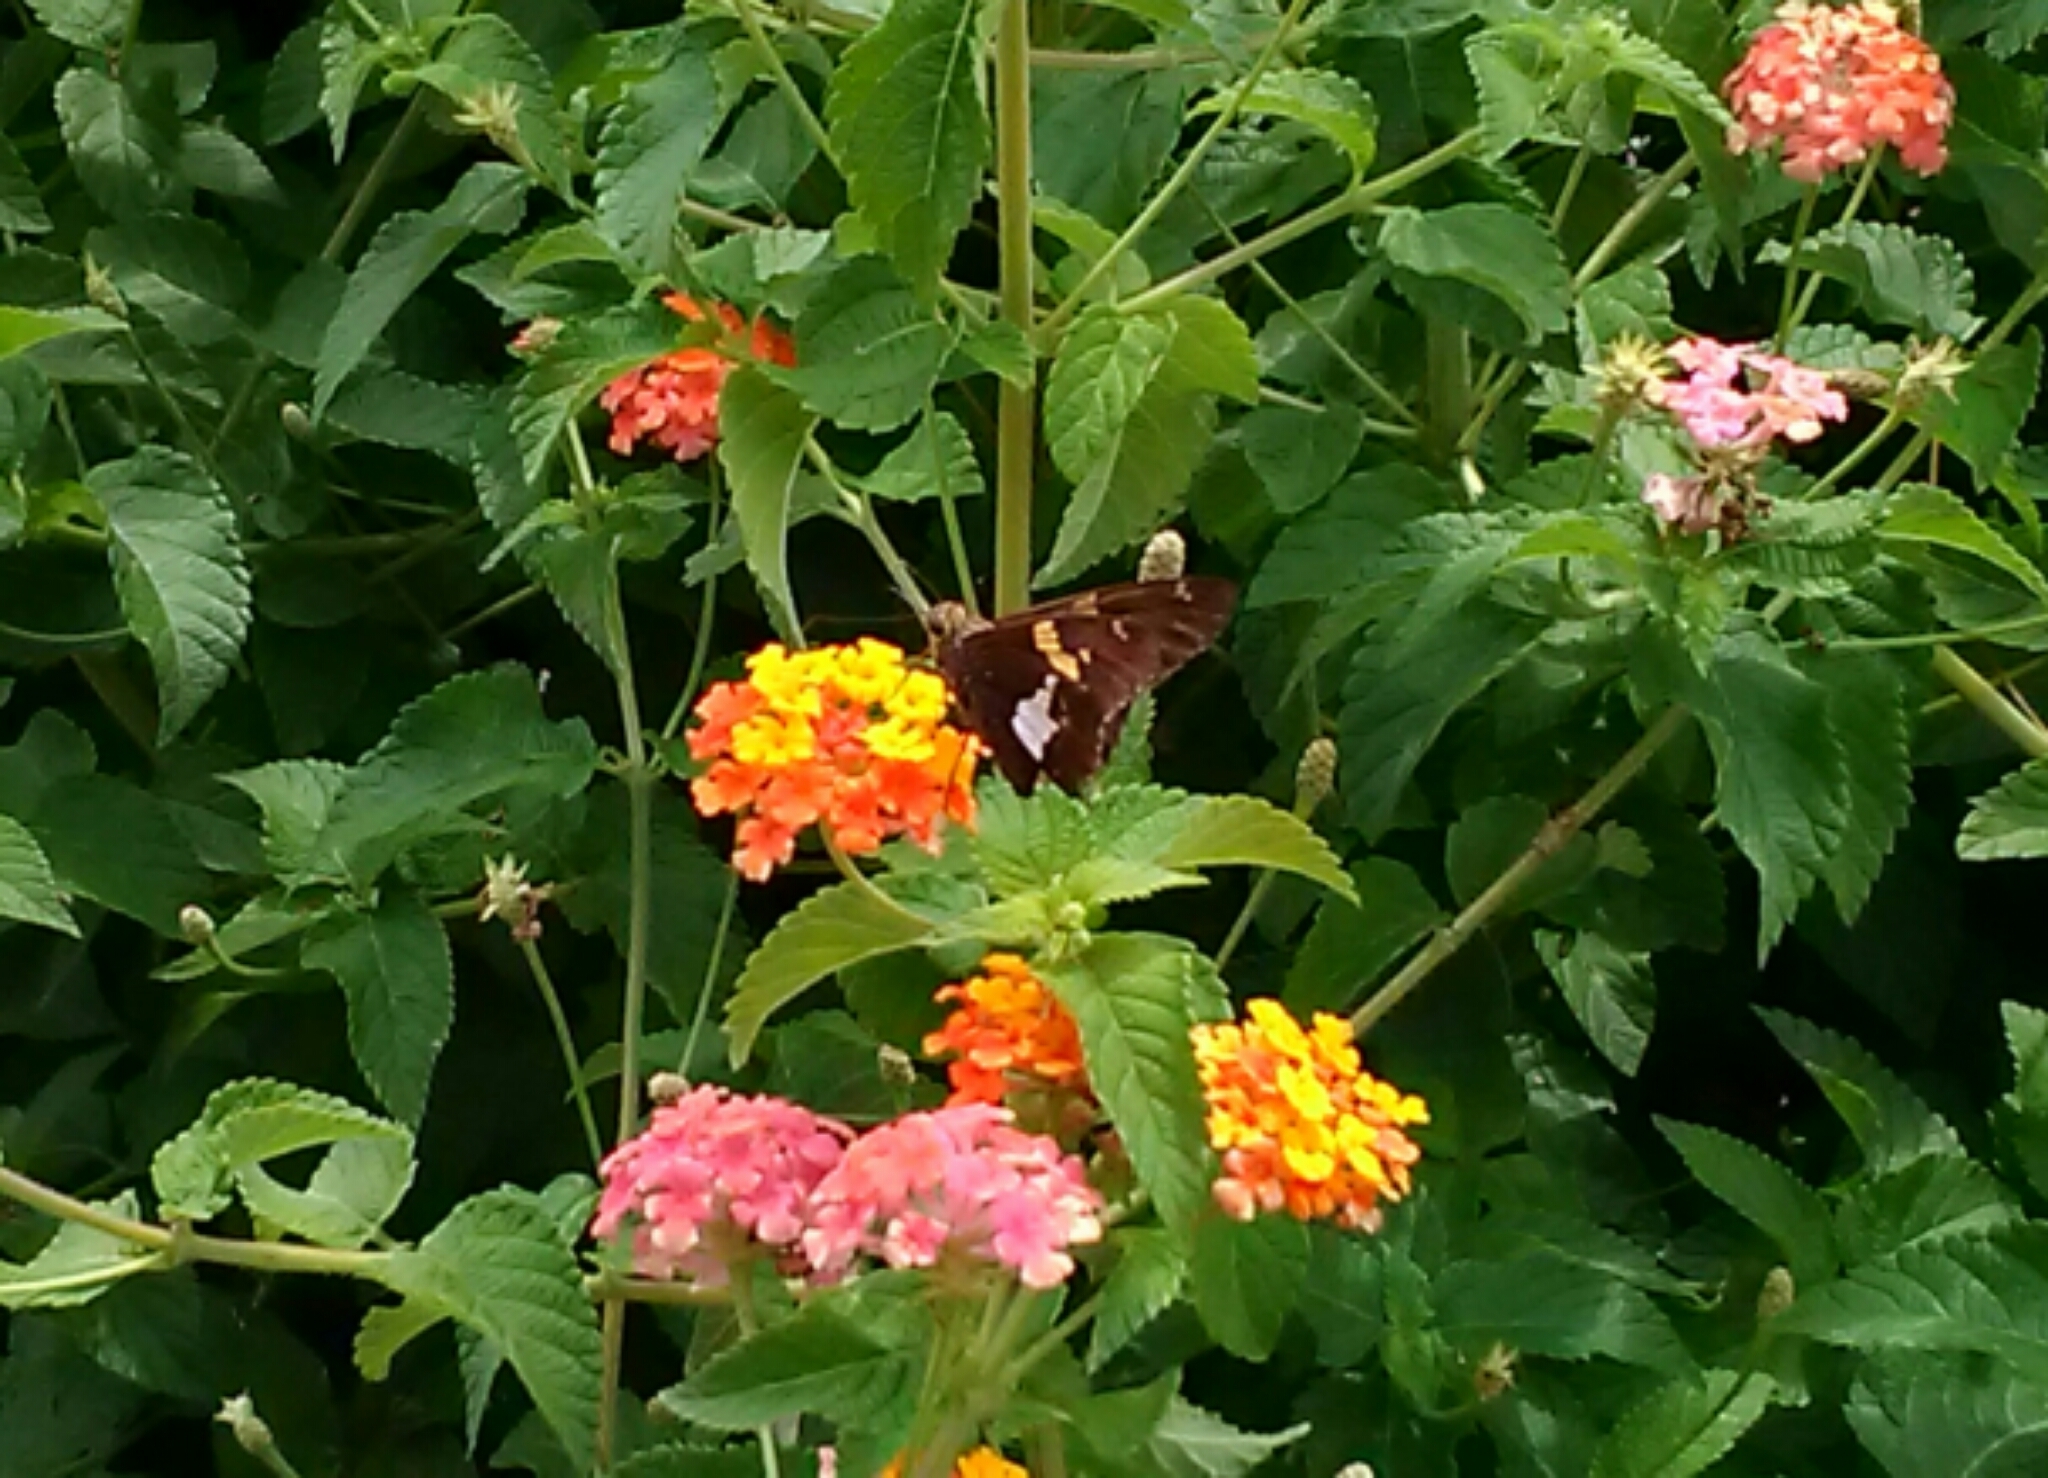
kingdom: Animalia
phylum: Arthropoda
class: Insecta
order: Lepidoptera
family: Hesperiidae
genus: Epargyreus
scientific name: Epargyreus clarus
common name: Silver-spotted skipper
